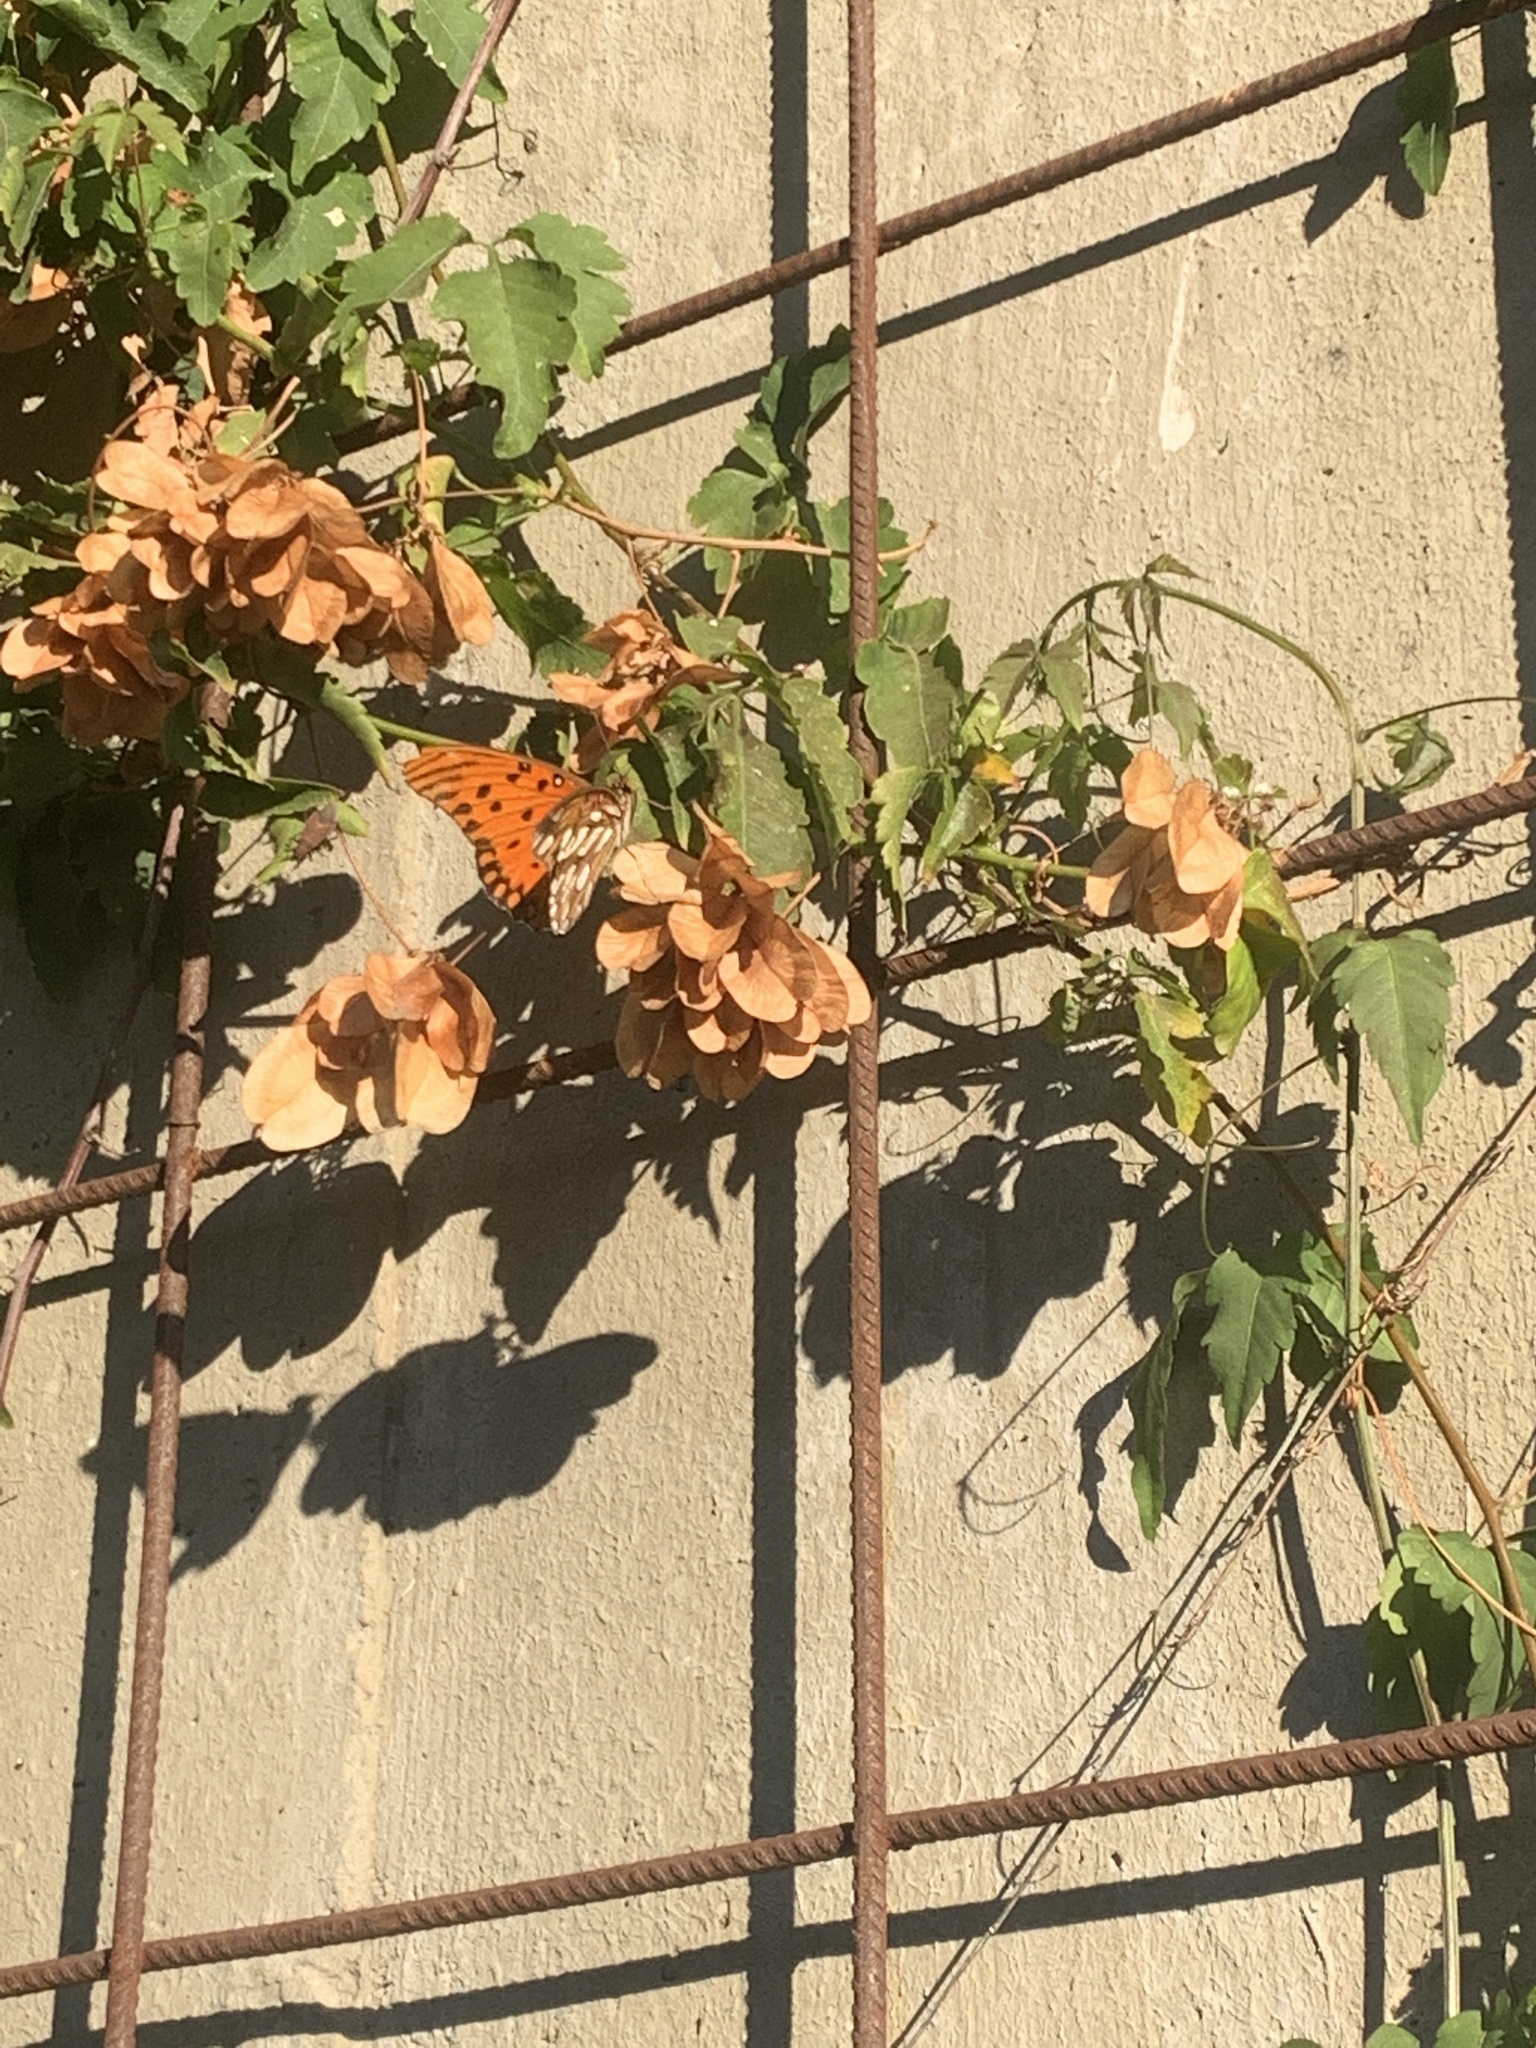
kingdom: Animalia
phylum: Arthropoda
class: Insecta
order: Lepidoptera
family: Nymphalidae
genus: Dione
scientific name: Dione vanillae
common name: Gulf fritillary
